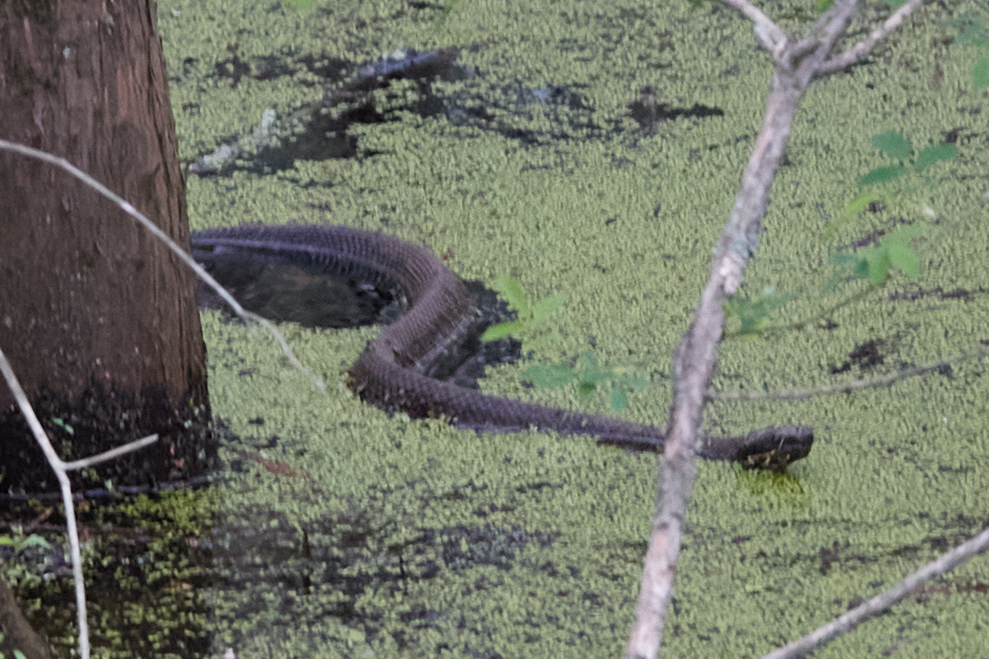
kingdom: Animalia
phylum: Chordata
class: Squamata
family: Viperidae
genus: Agkistrodon
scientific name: Agkistrodon piscivorus
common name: Cottonmouth
